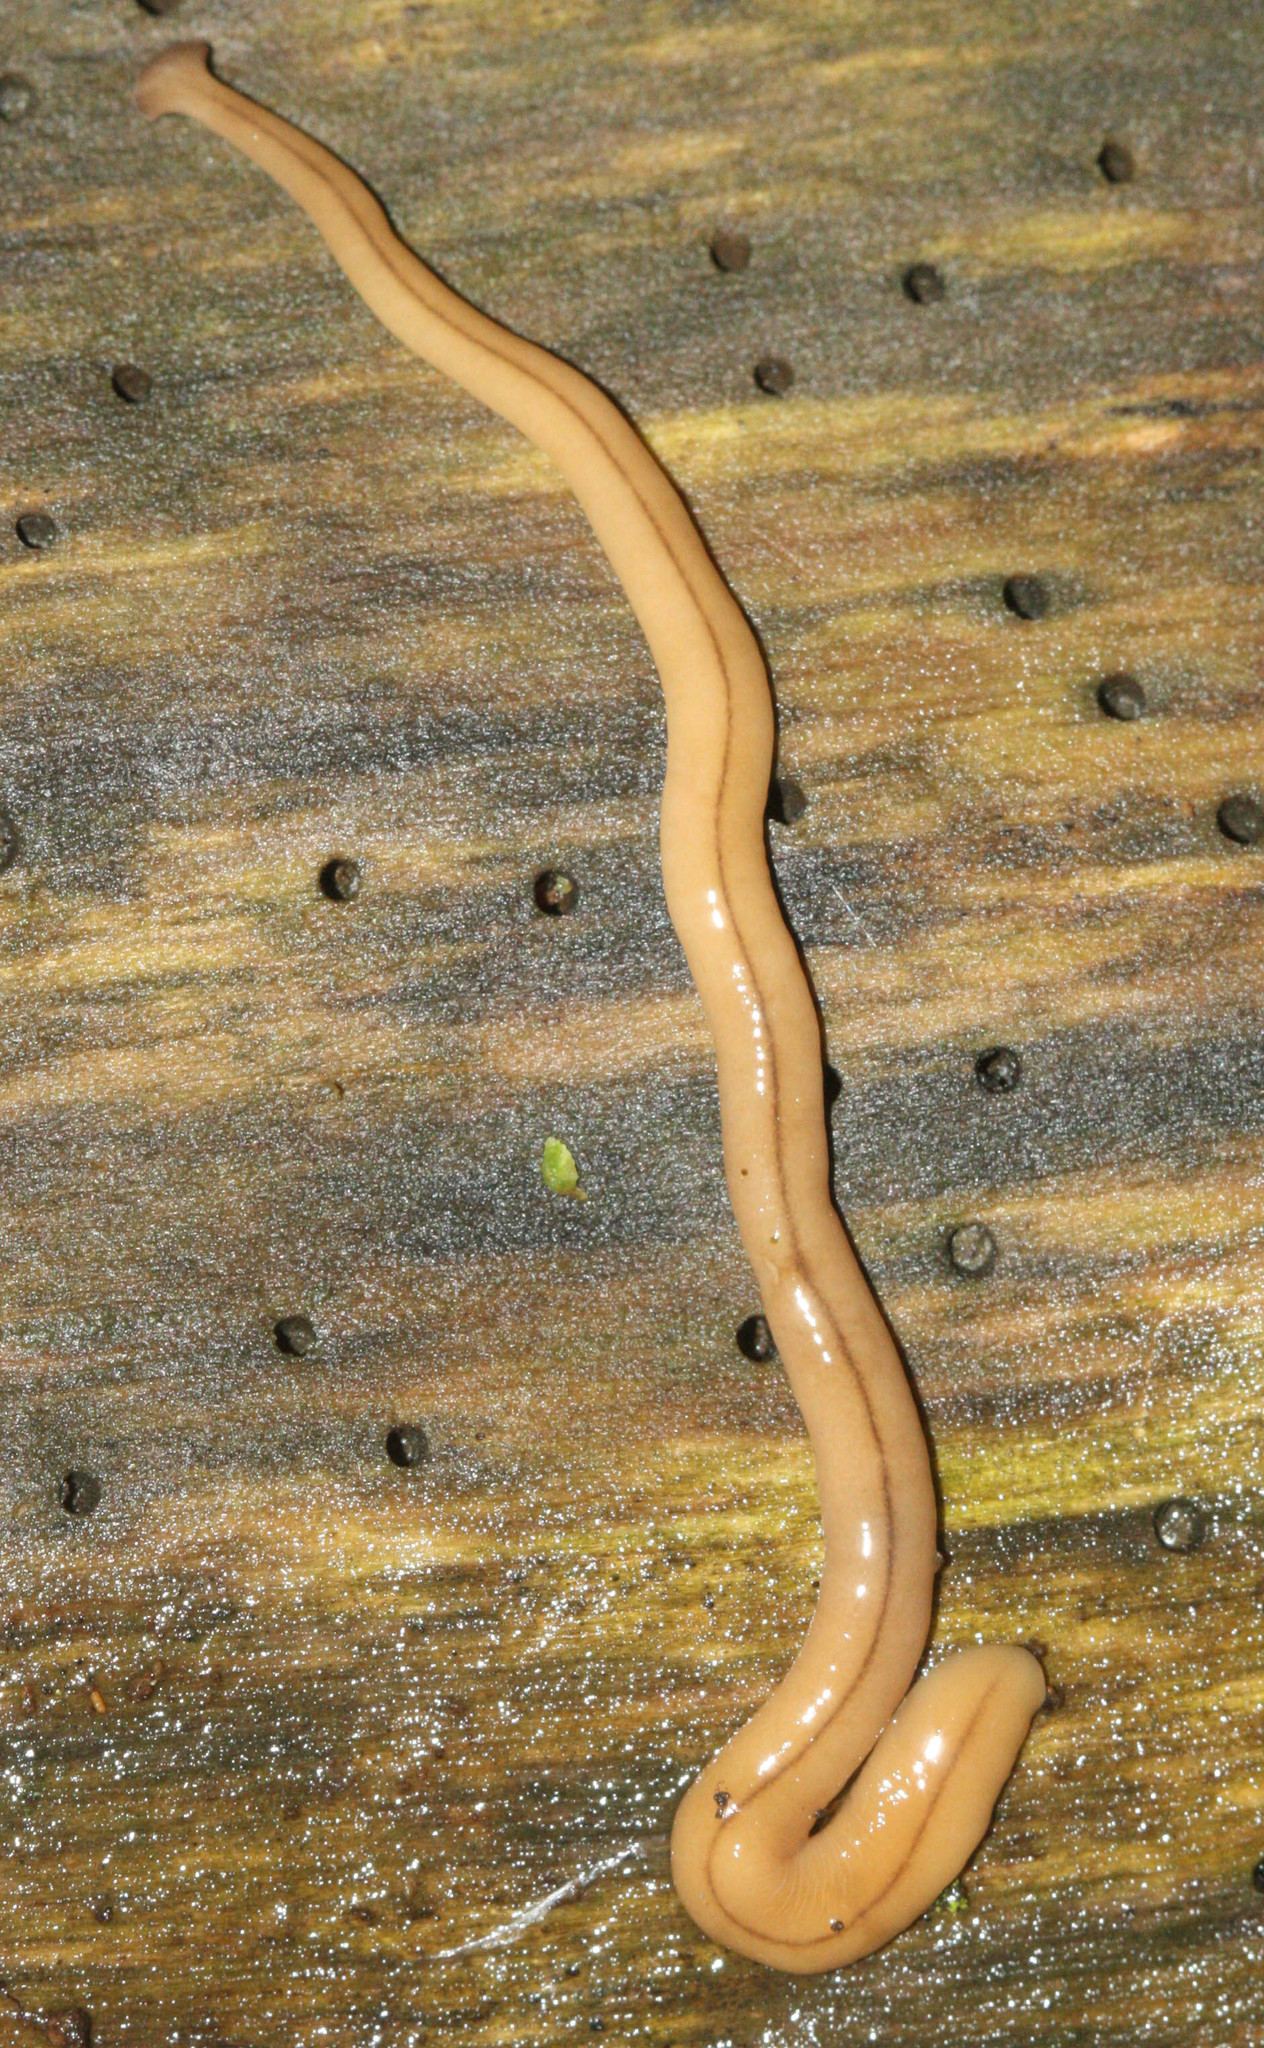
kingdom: Animalia
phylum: Platyhelminthes
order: Tricladida
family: Geoplanidae
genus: Bipalium
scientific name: Bipalium adventitium
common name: Land planarian
